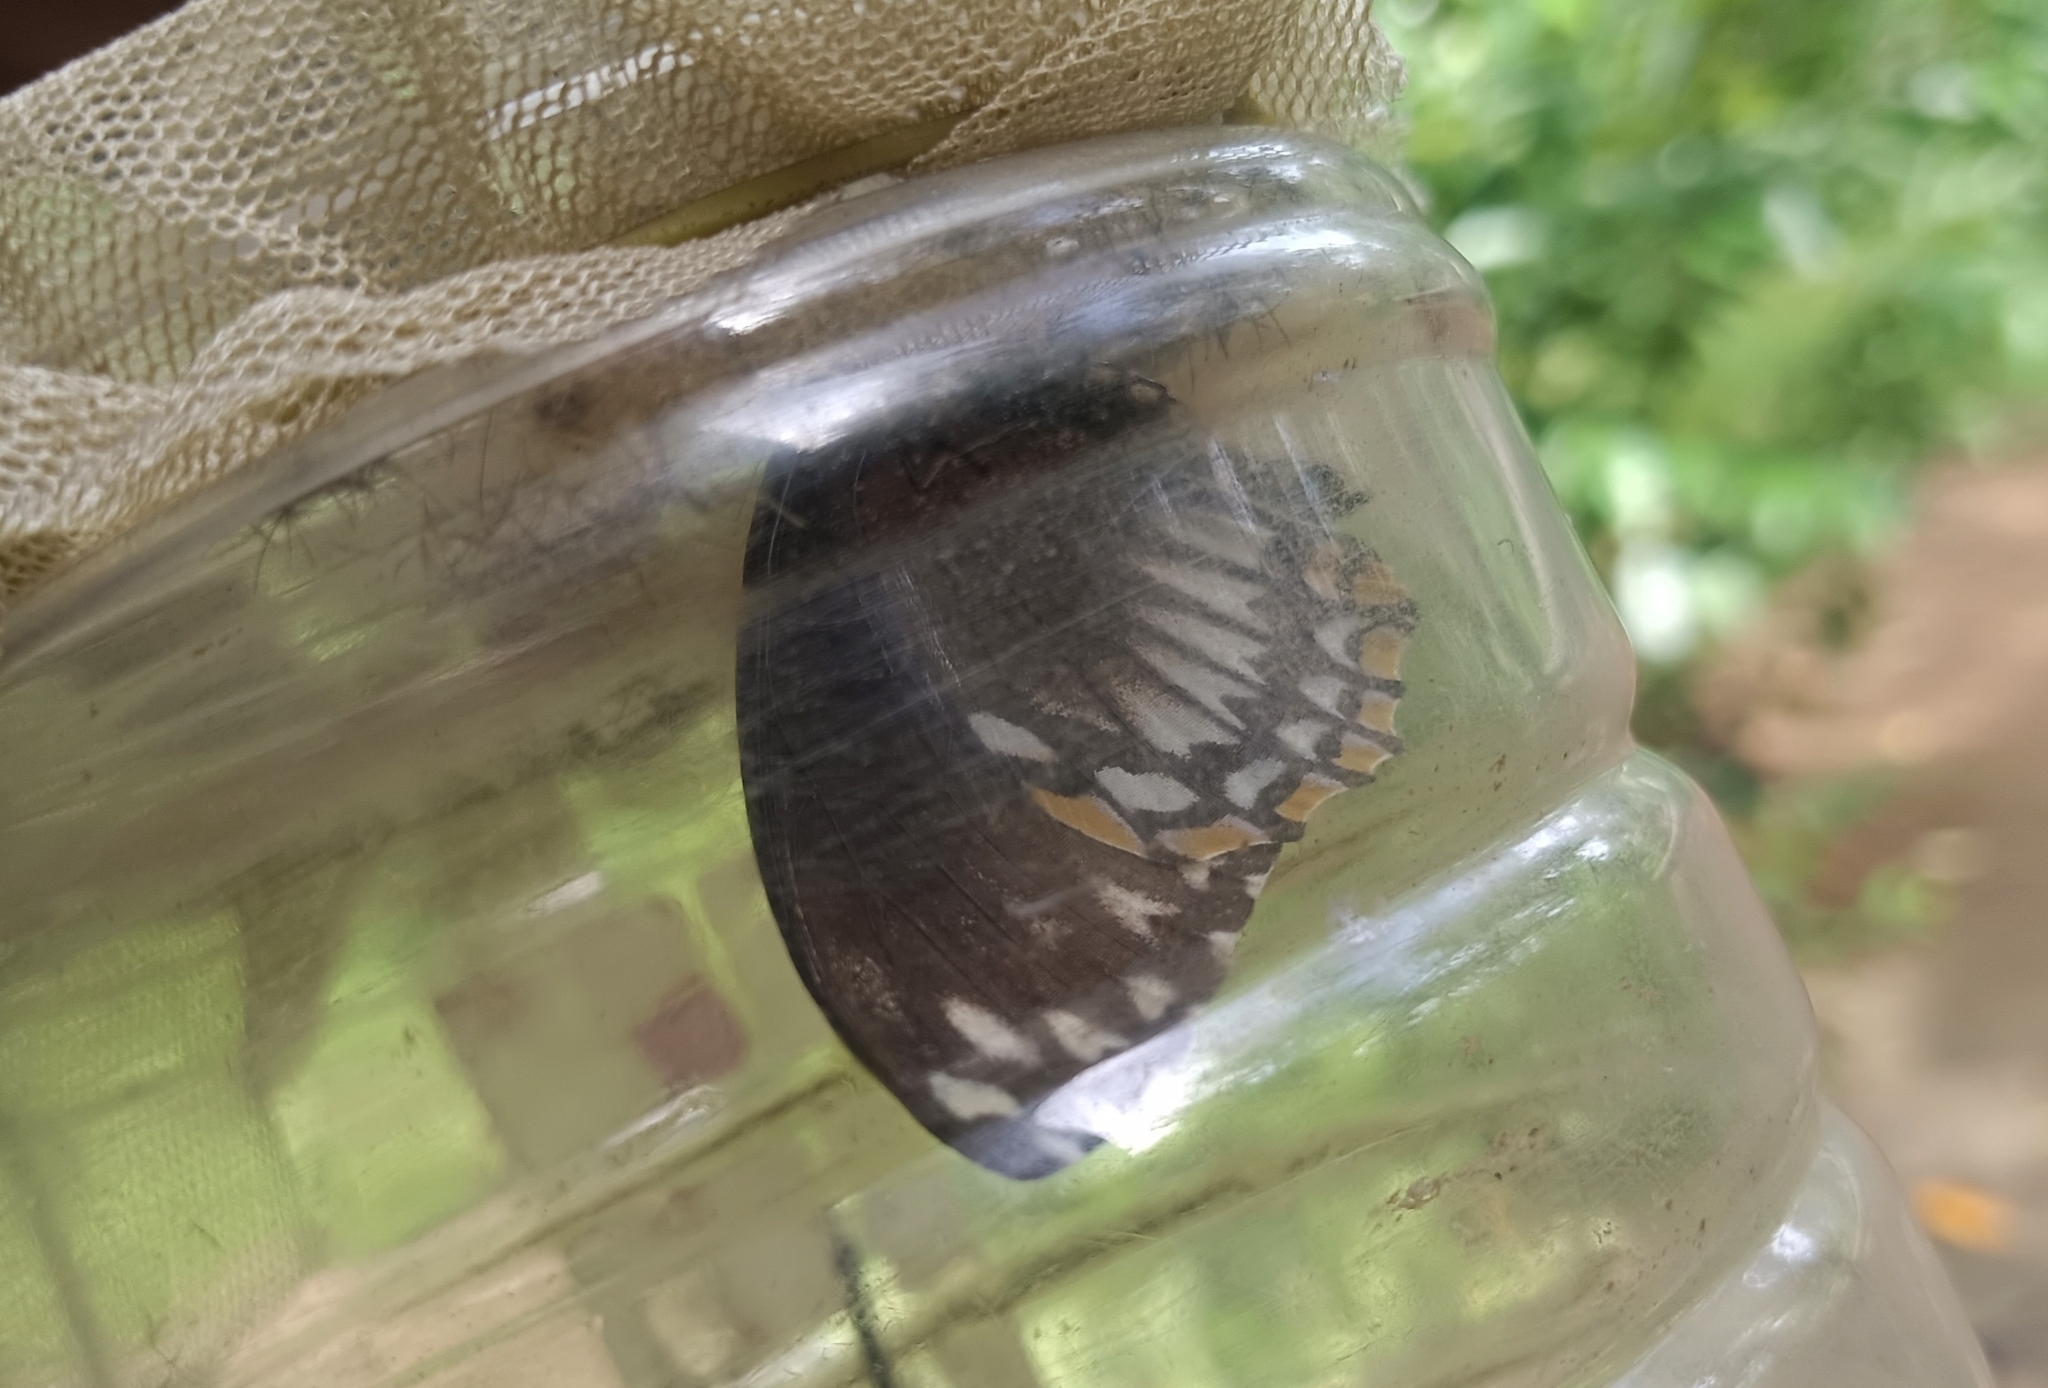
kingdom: Animalia
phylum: Arthropoda
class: Insecta
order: Lepidoptera
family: Papilionidae
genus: Chilasa
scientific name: Chilasa clytia
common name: Common mime
